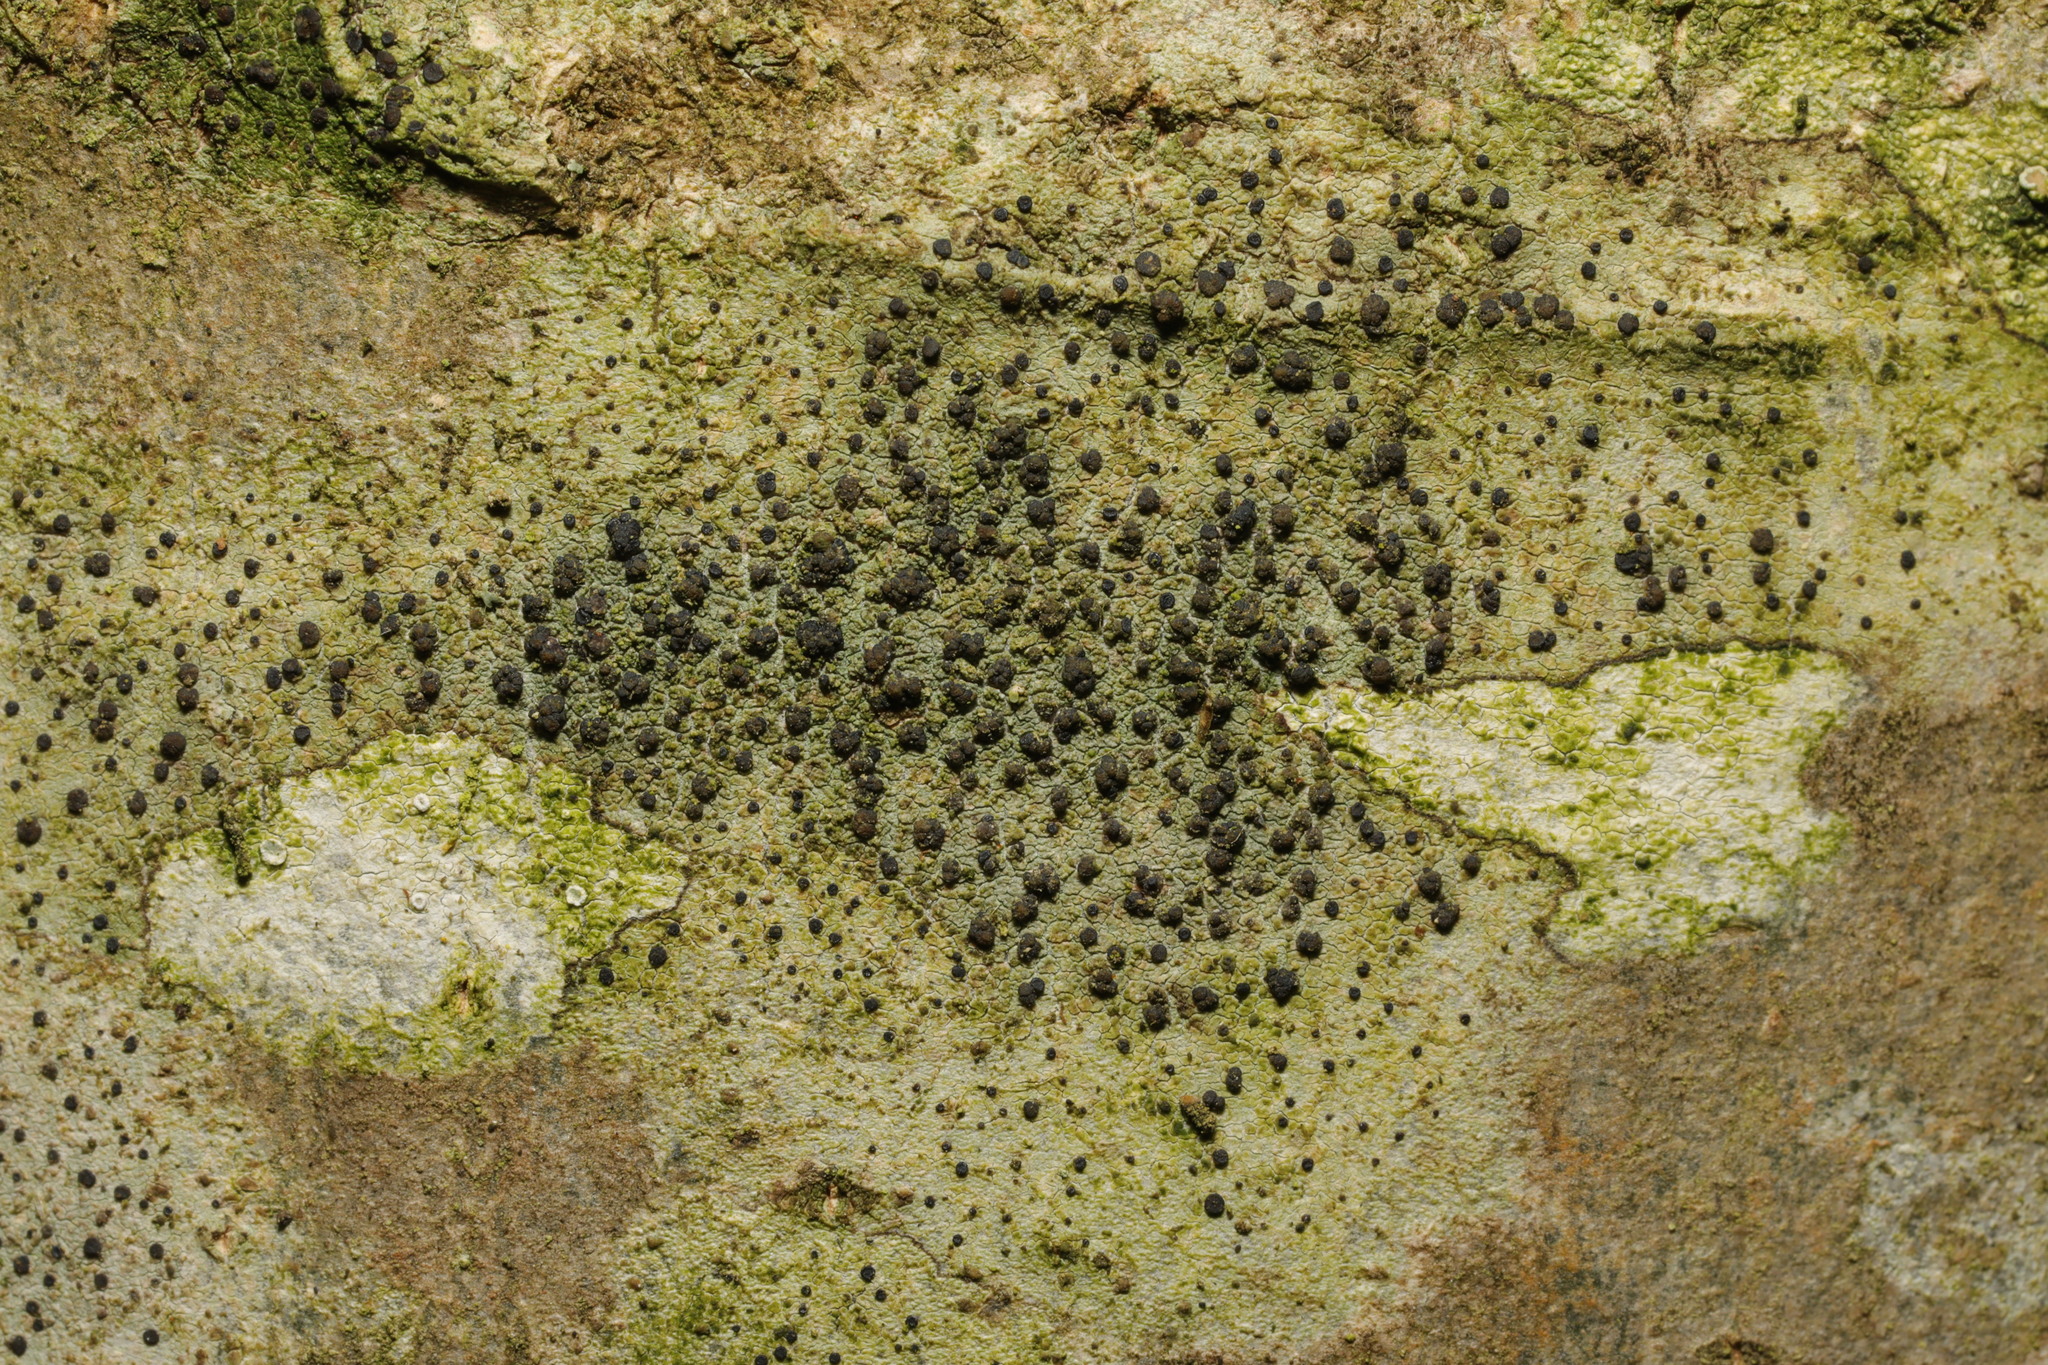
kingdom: Fungi
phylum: Ascomycota
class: Lecanoromycetes
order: Lecanorales
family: Lecanoraceae
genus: Lecidella
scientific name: Lecidella elaeochroma
